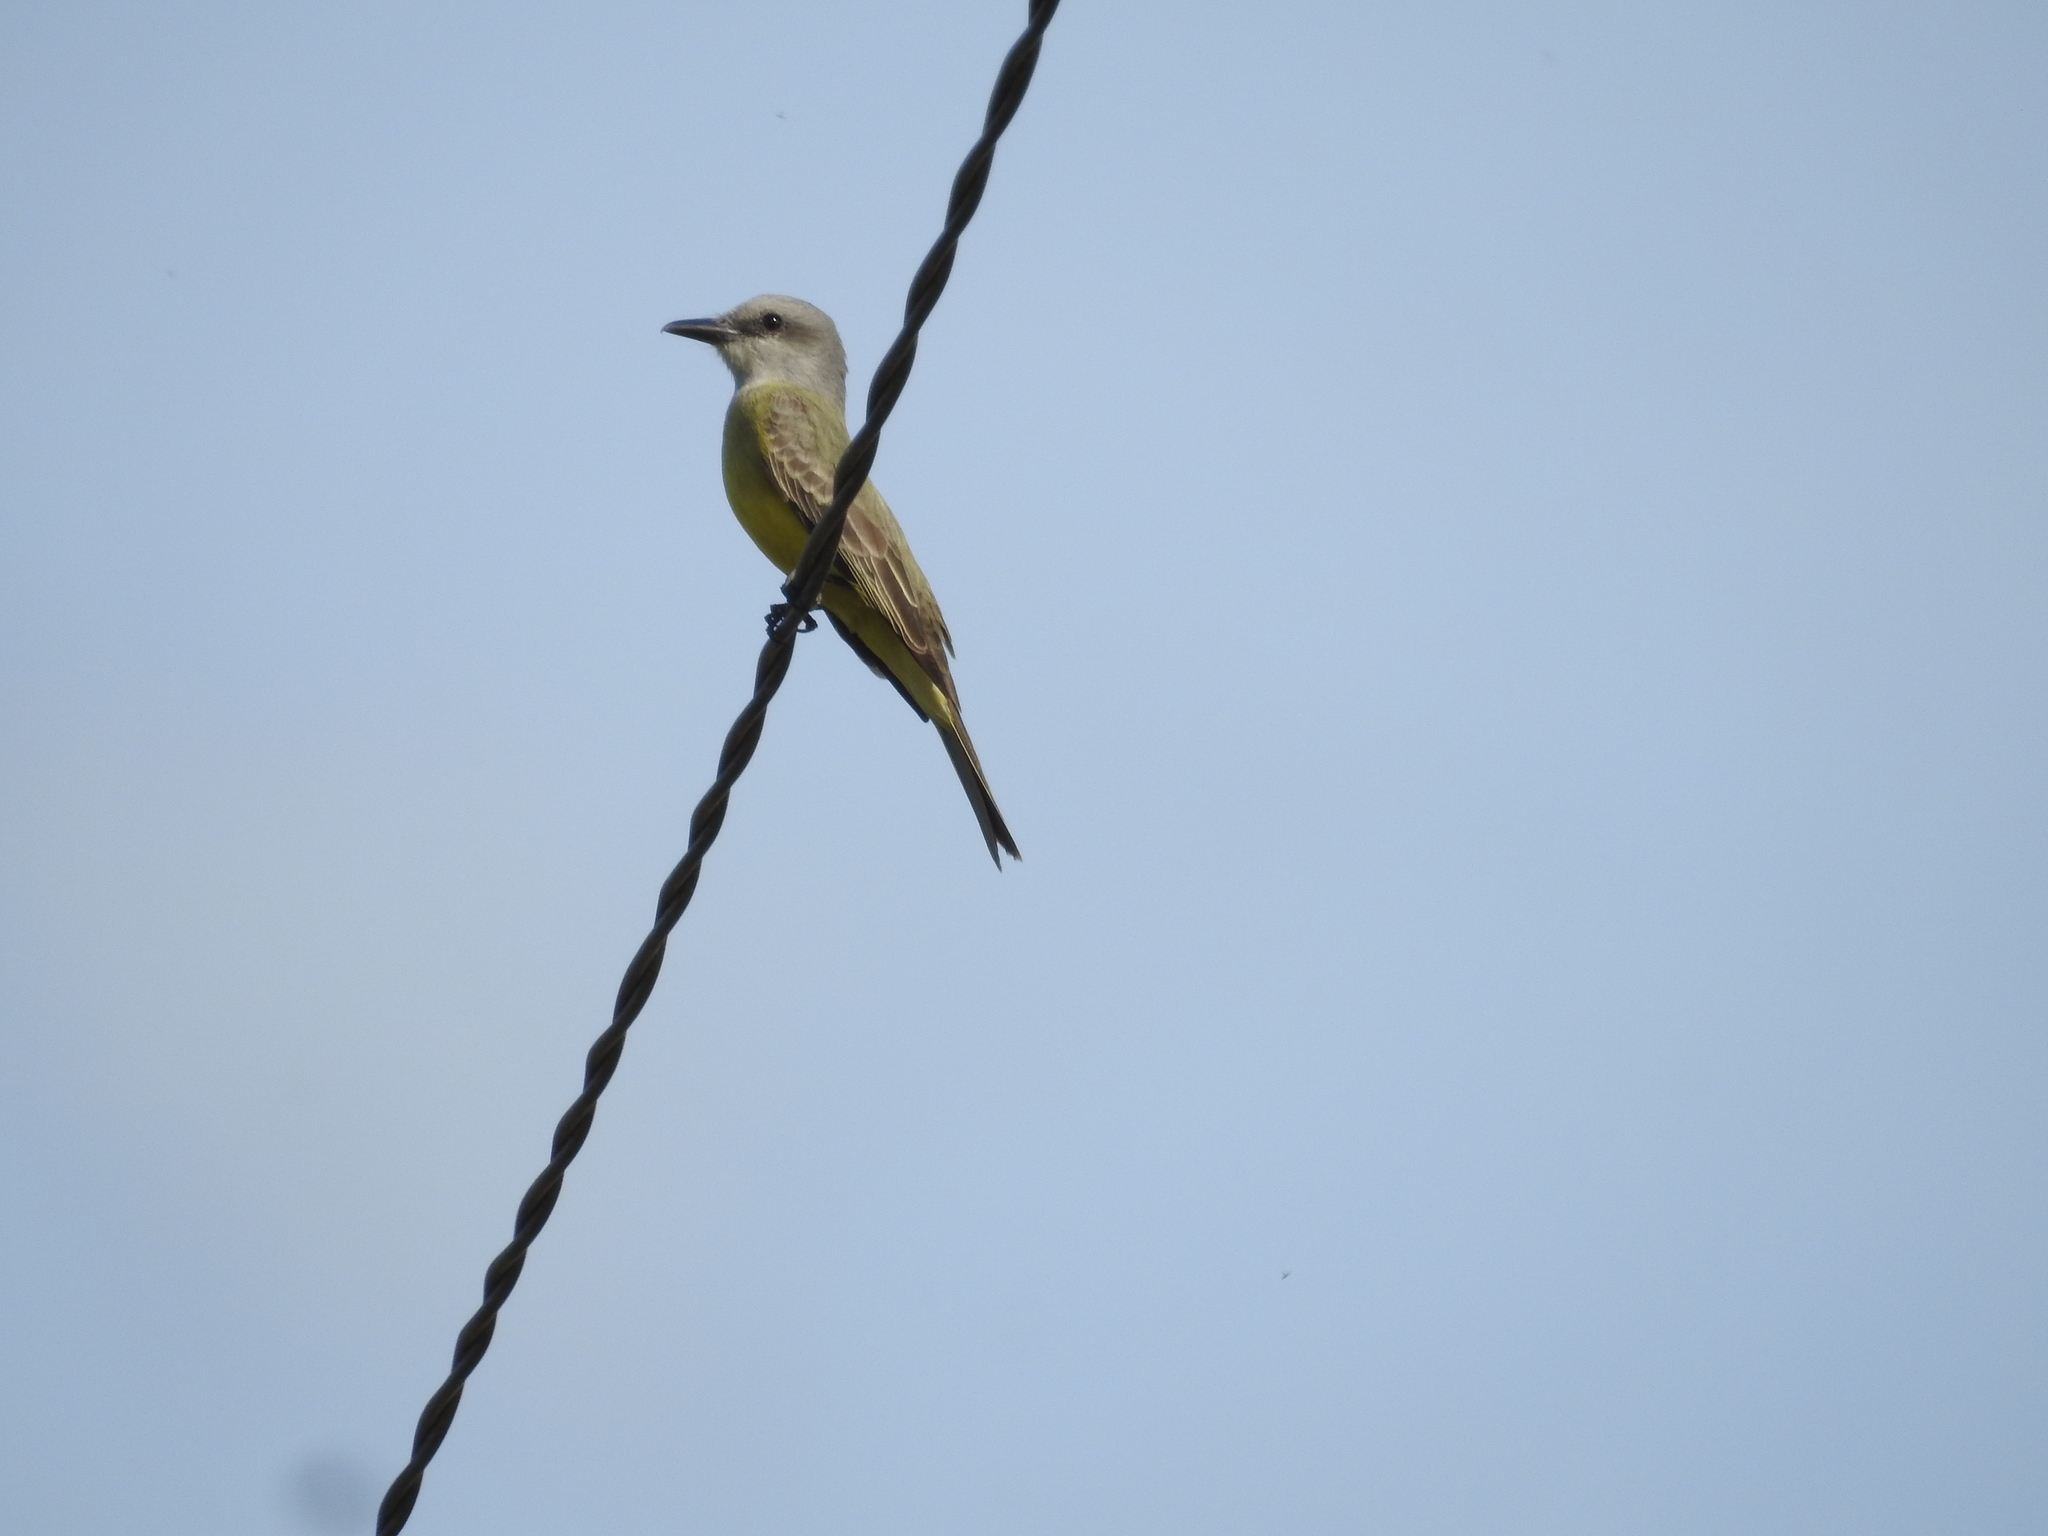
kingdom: Animalia
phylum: Chordata
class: Aves
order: Passeriformes
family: Tyrannidae
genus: Tyrannus
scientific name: Tyrannus melancholicus
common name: Tropical kingbird
